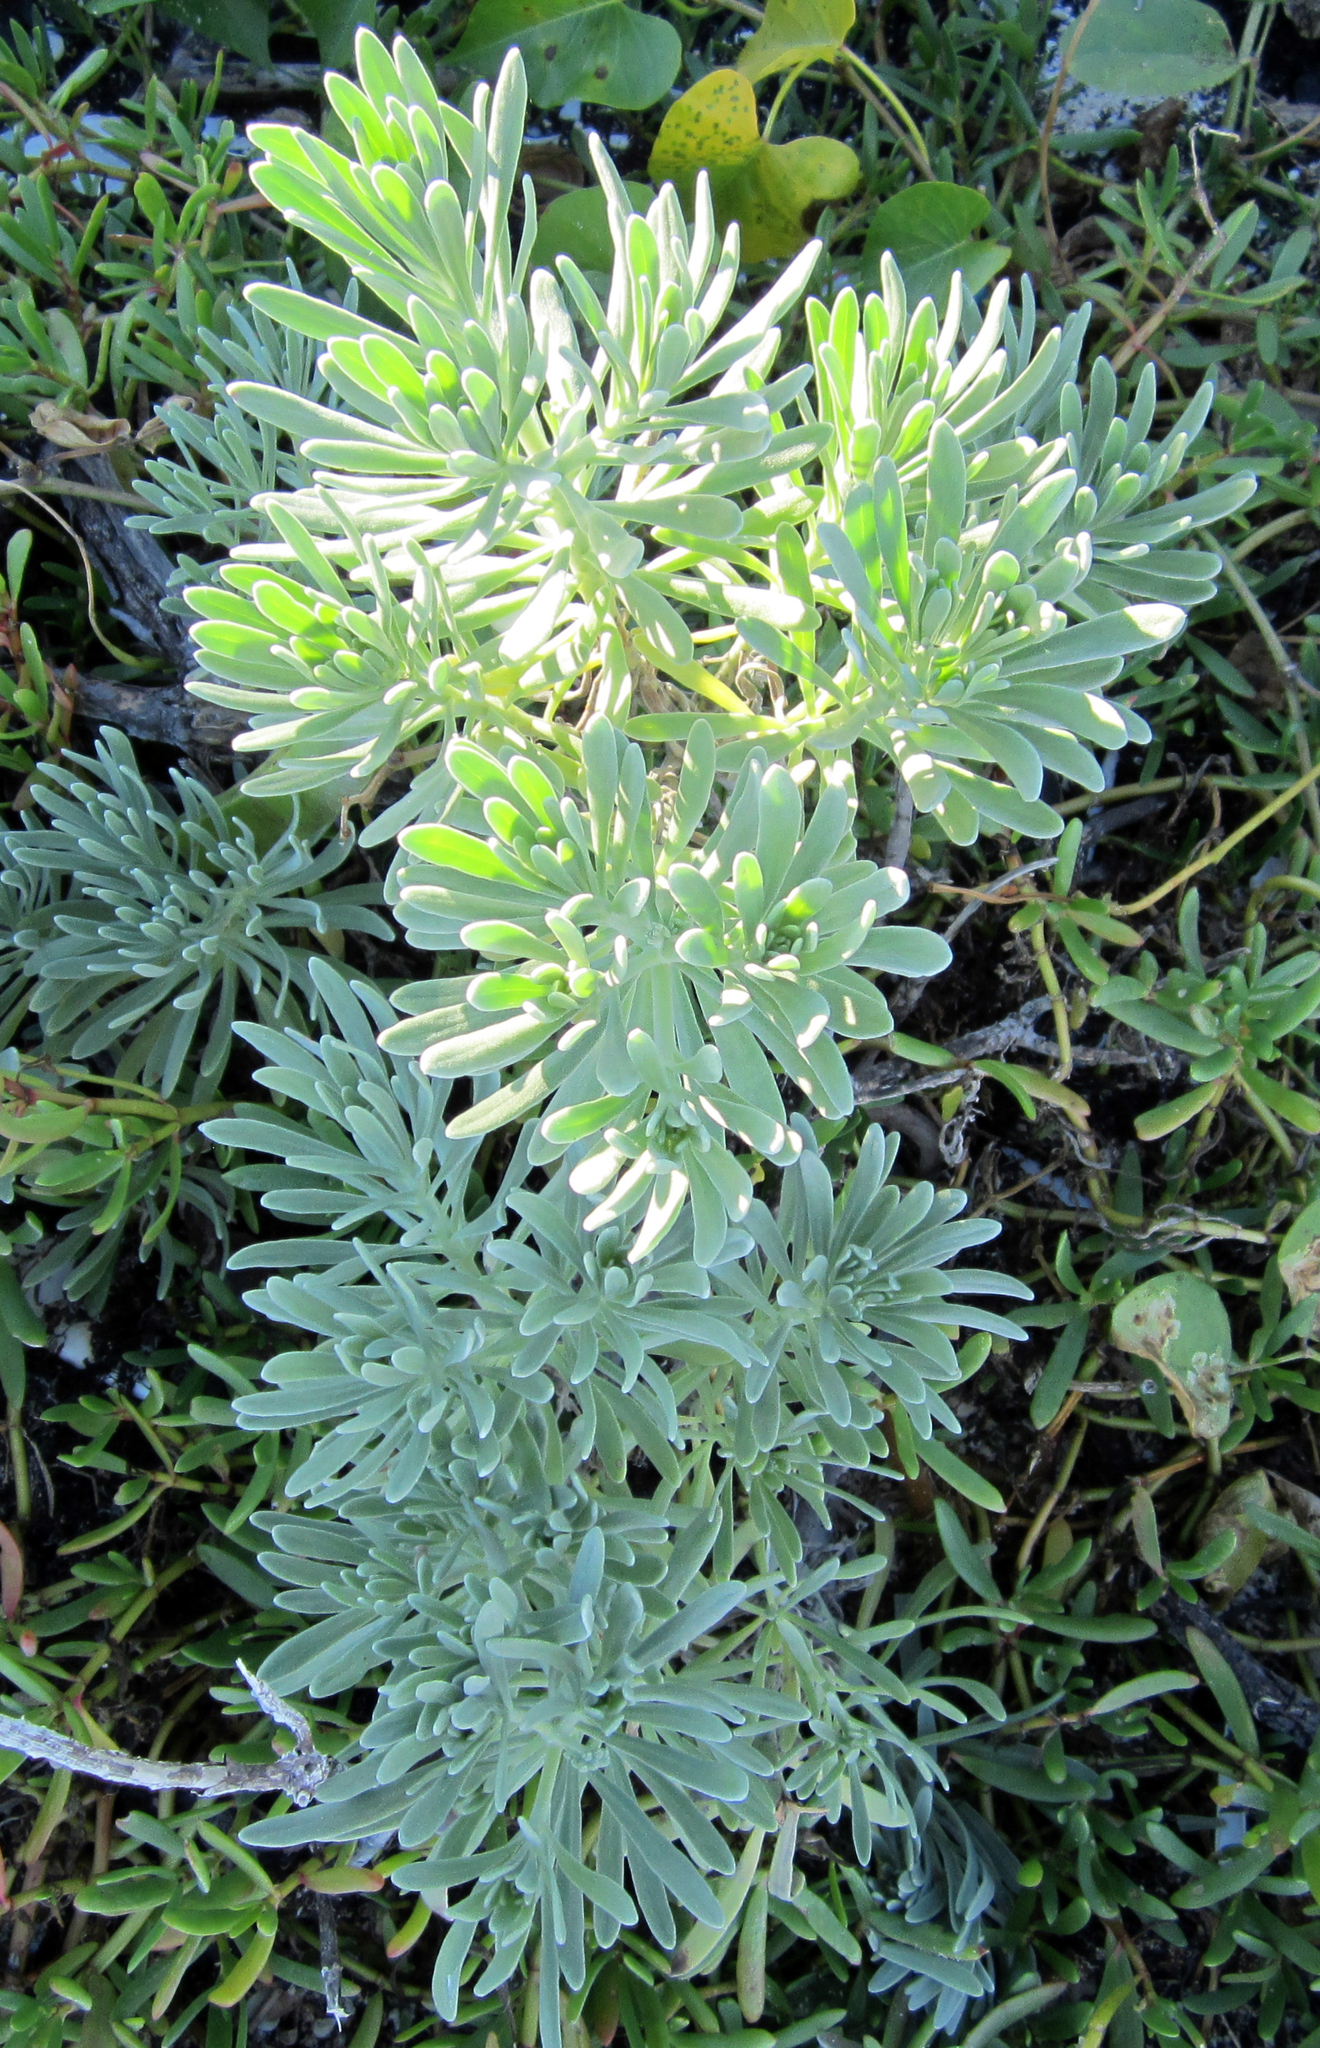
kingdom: Plantae
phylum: Tracheophyta
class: Magnoliopsida
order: Boraginales
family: Heliotropiaceae
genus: Tournefortia
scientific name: Tournefortia gnaphalodes
